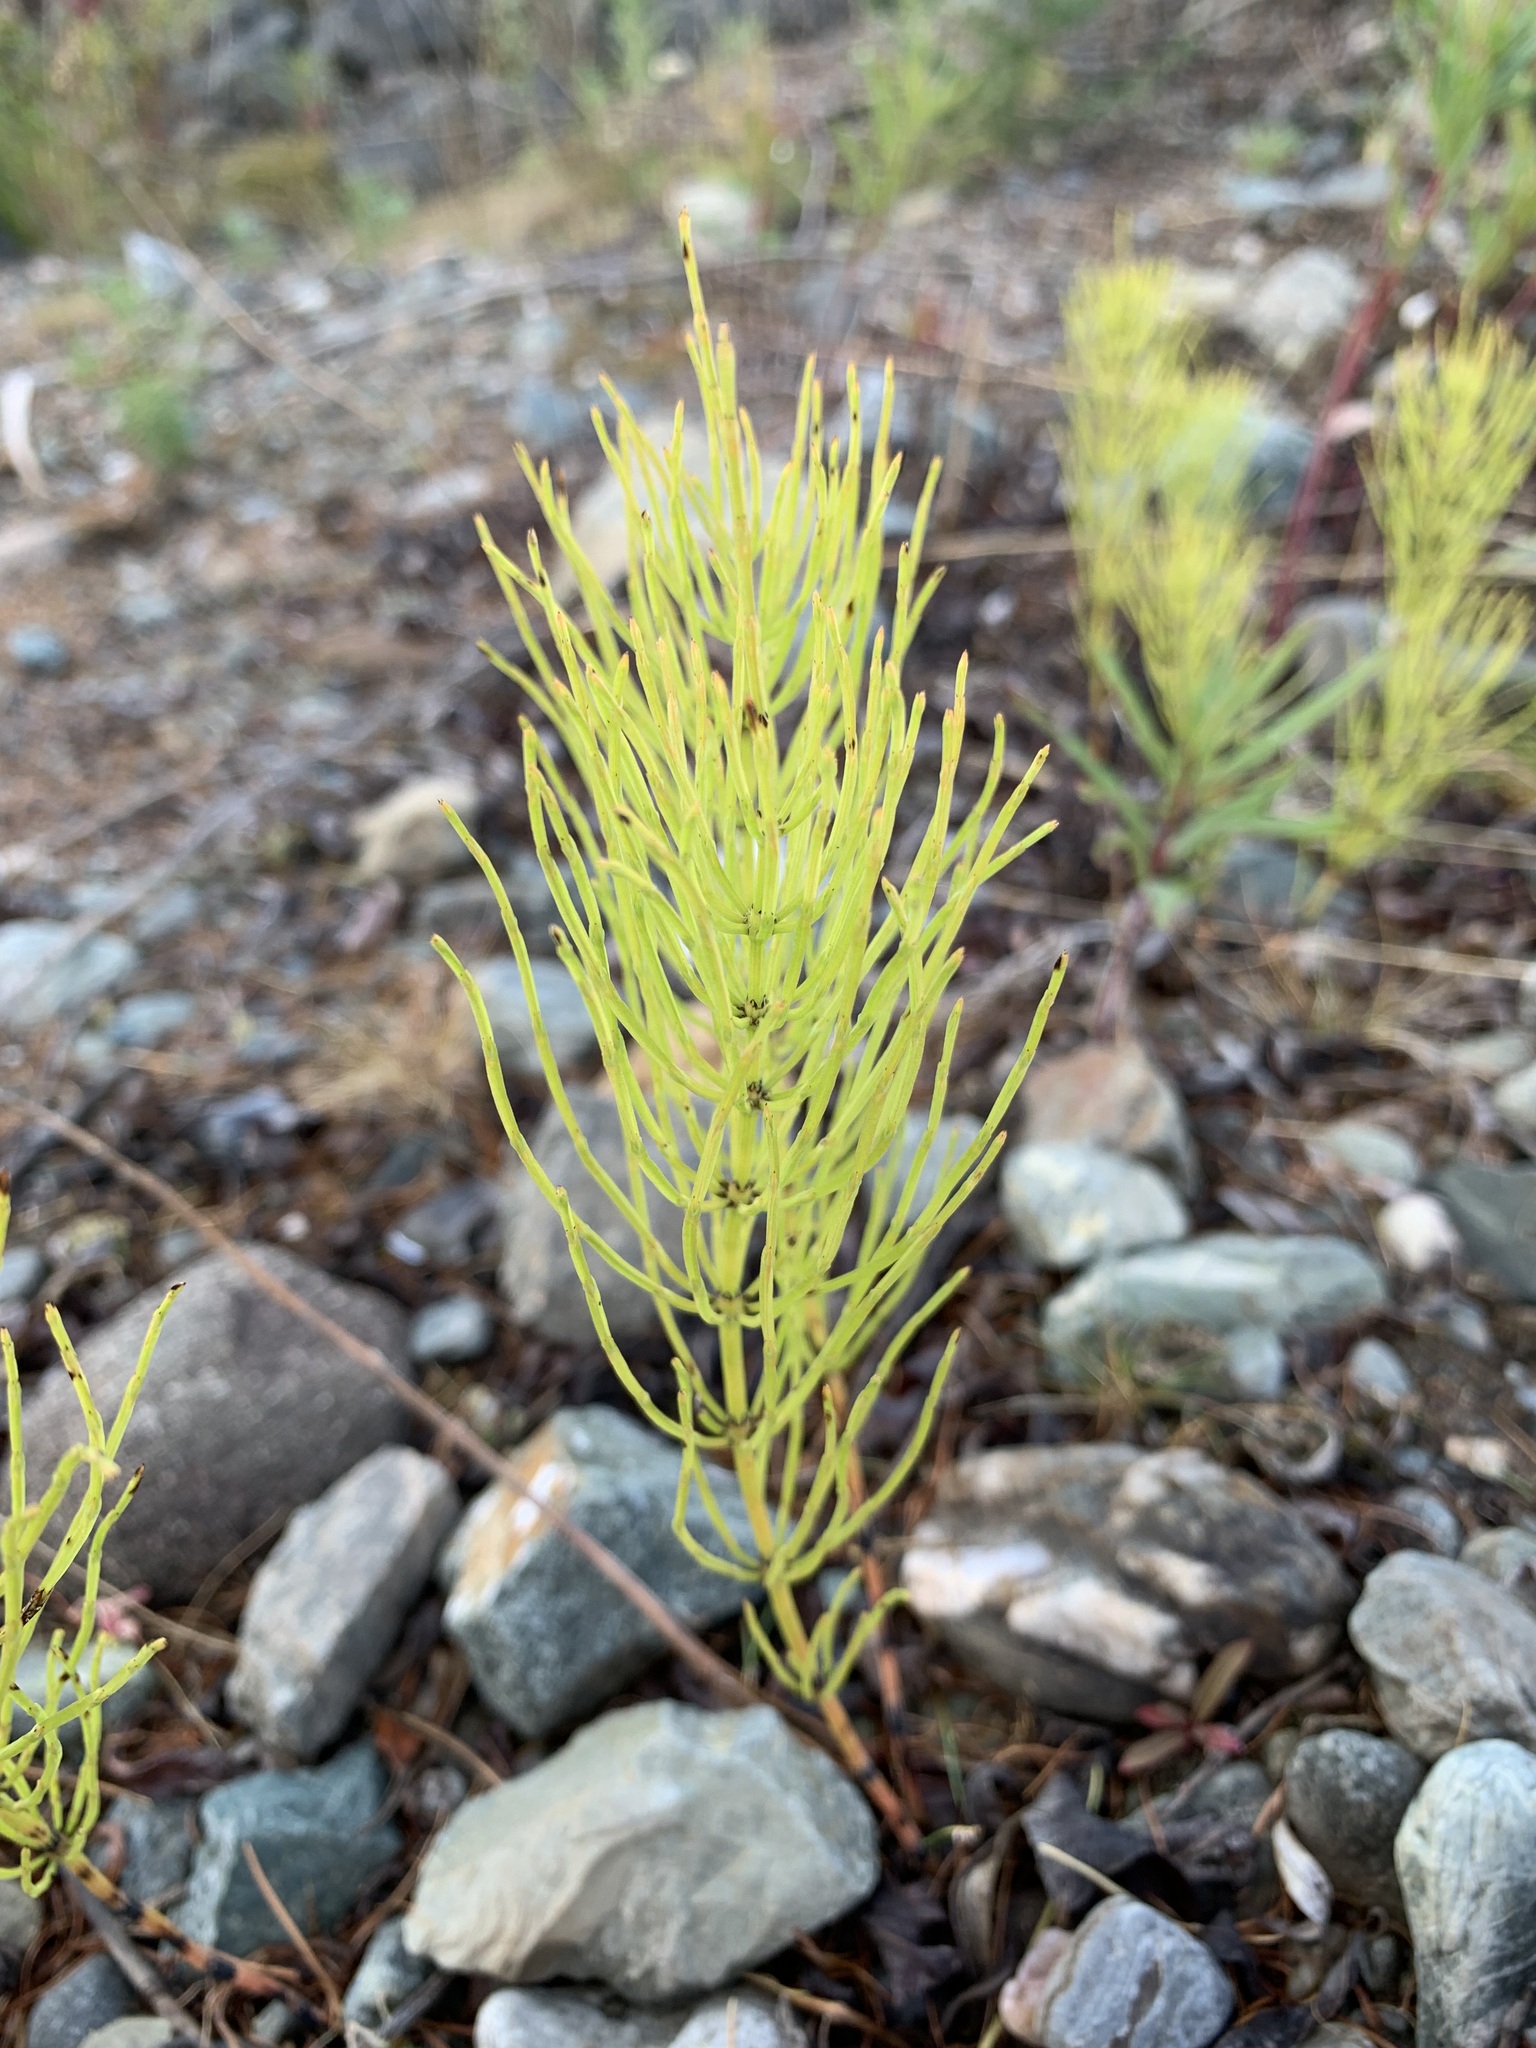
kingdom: Plantae
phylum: Tracheophyta
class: Polypodiopsida
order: Equisetales
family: Equisetaceae
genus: Equisetum
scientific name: Equisetum arvense
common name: Field horsetail
